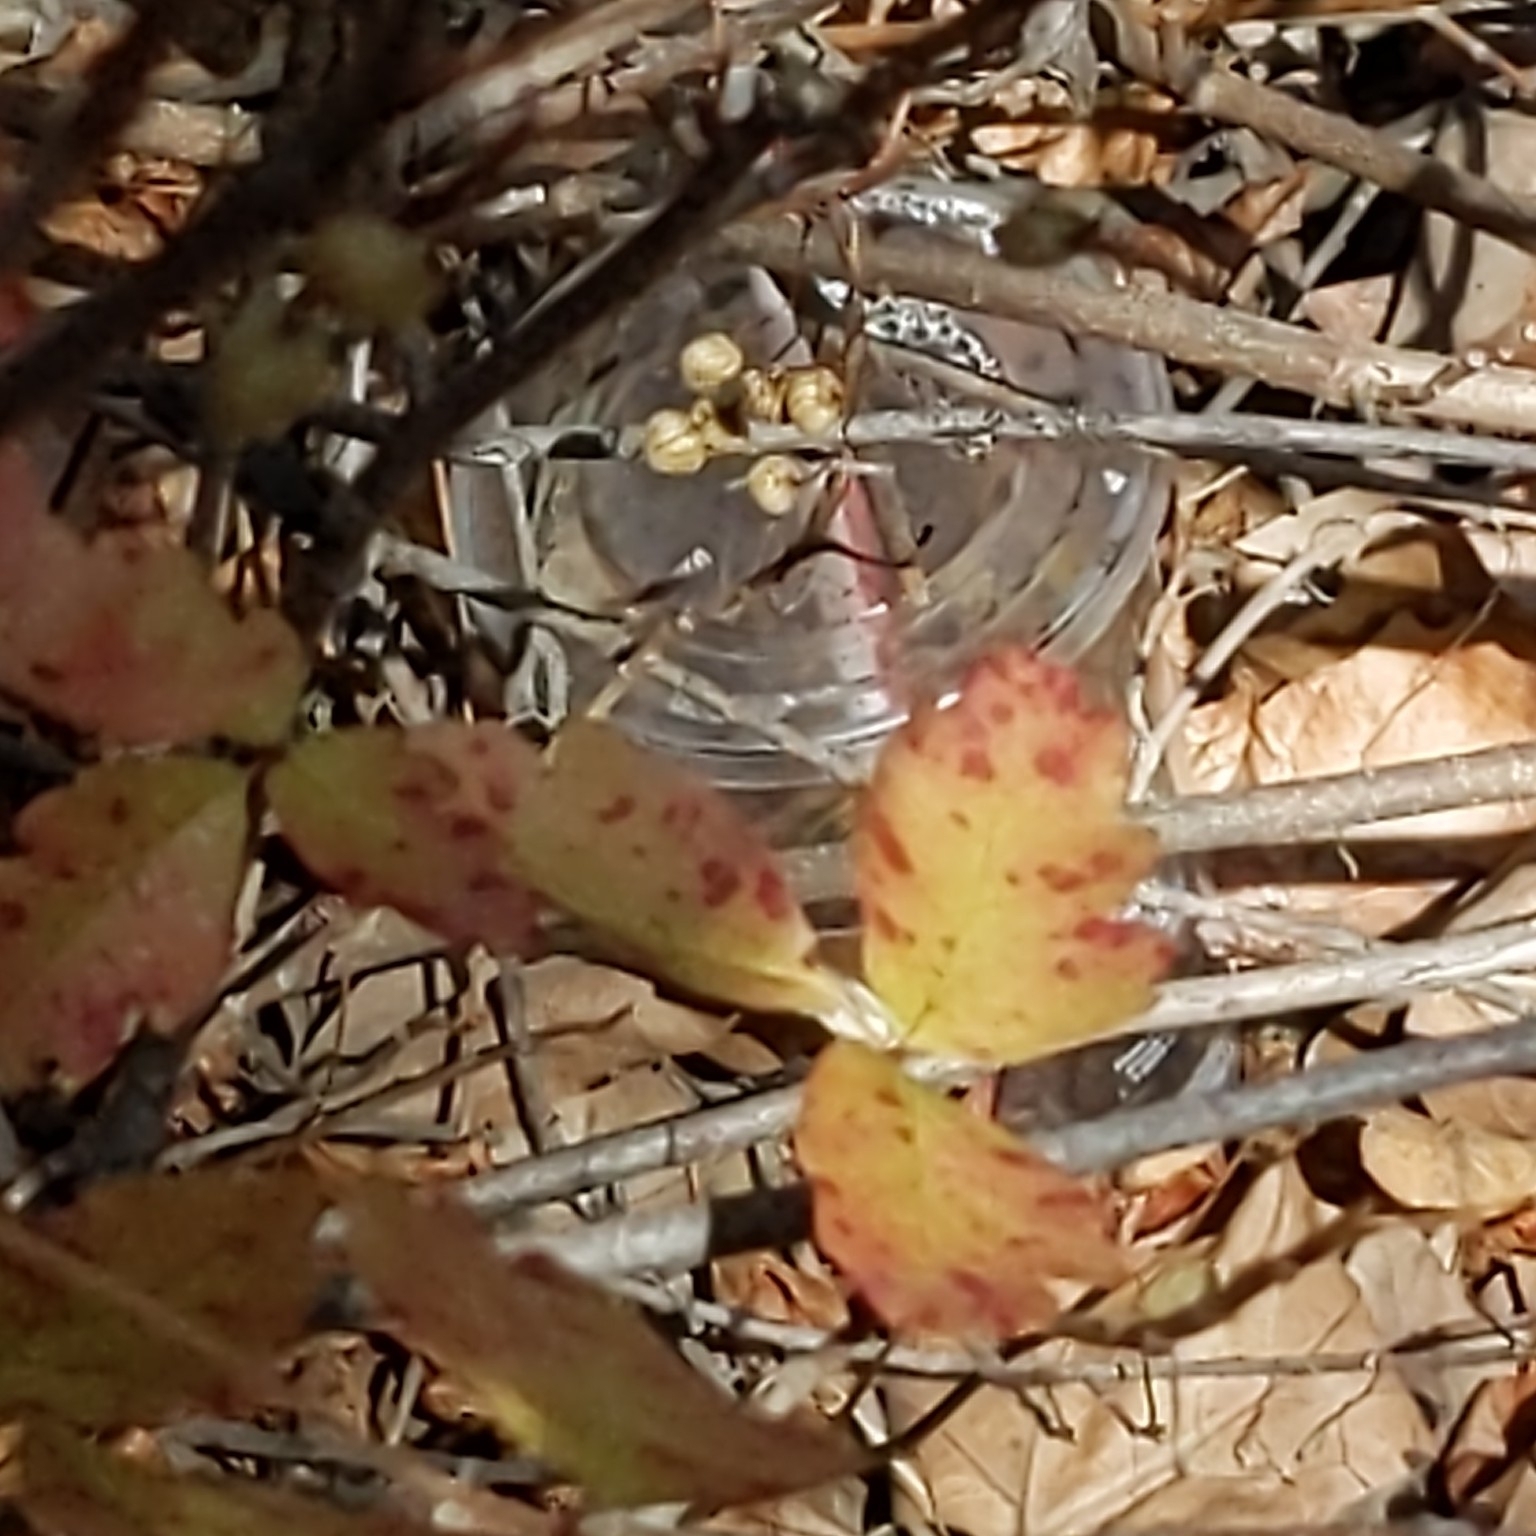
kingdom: Plantae
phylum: Tracheophyta
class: Magnoliopsida
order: Sapindales
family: Anacardiaceae
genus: Toxicodendron
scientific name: Toxicodendron diversilobum
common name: Pacific poison-oak
